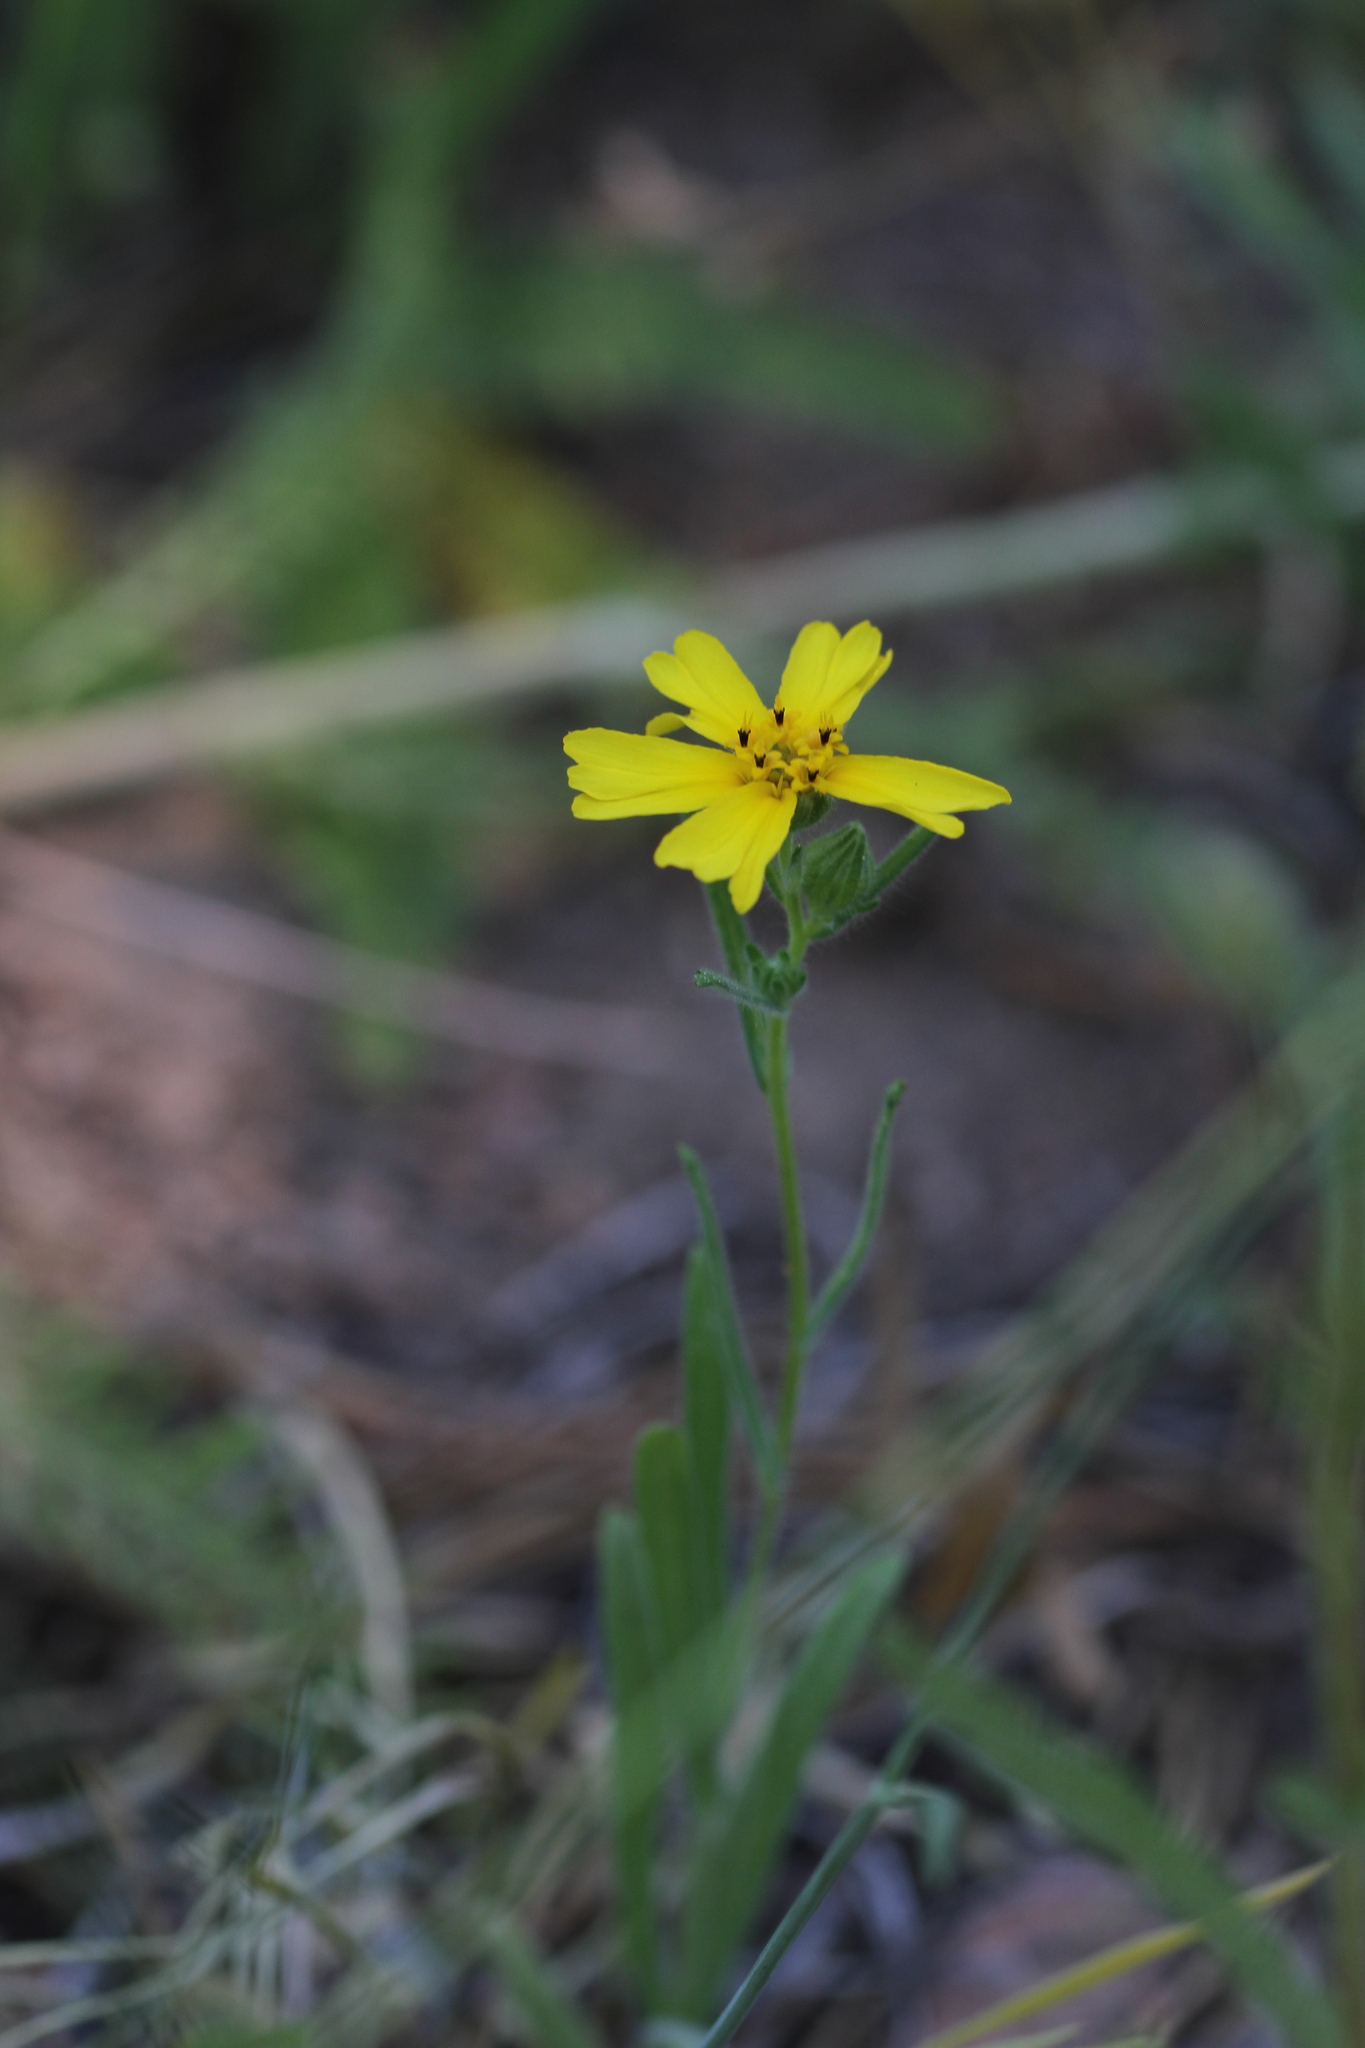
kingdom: Plantae
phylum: Tracheophyta
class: Magnoliopsida
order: Asterales
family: Asteraceae
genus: Madia
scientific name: Madia elegans
